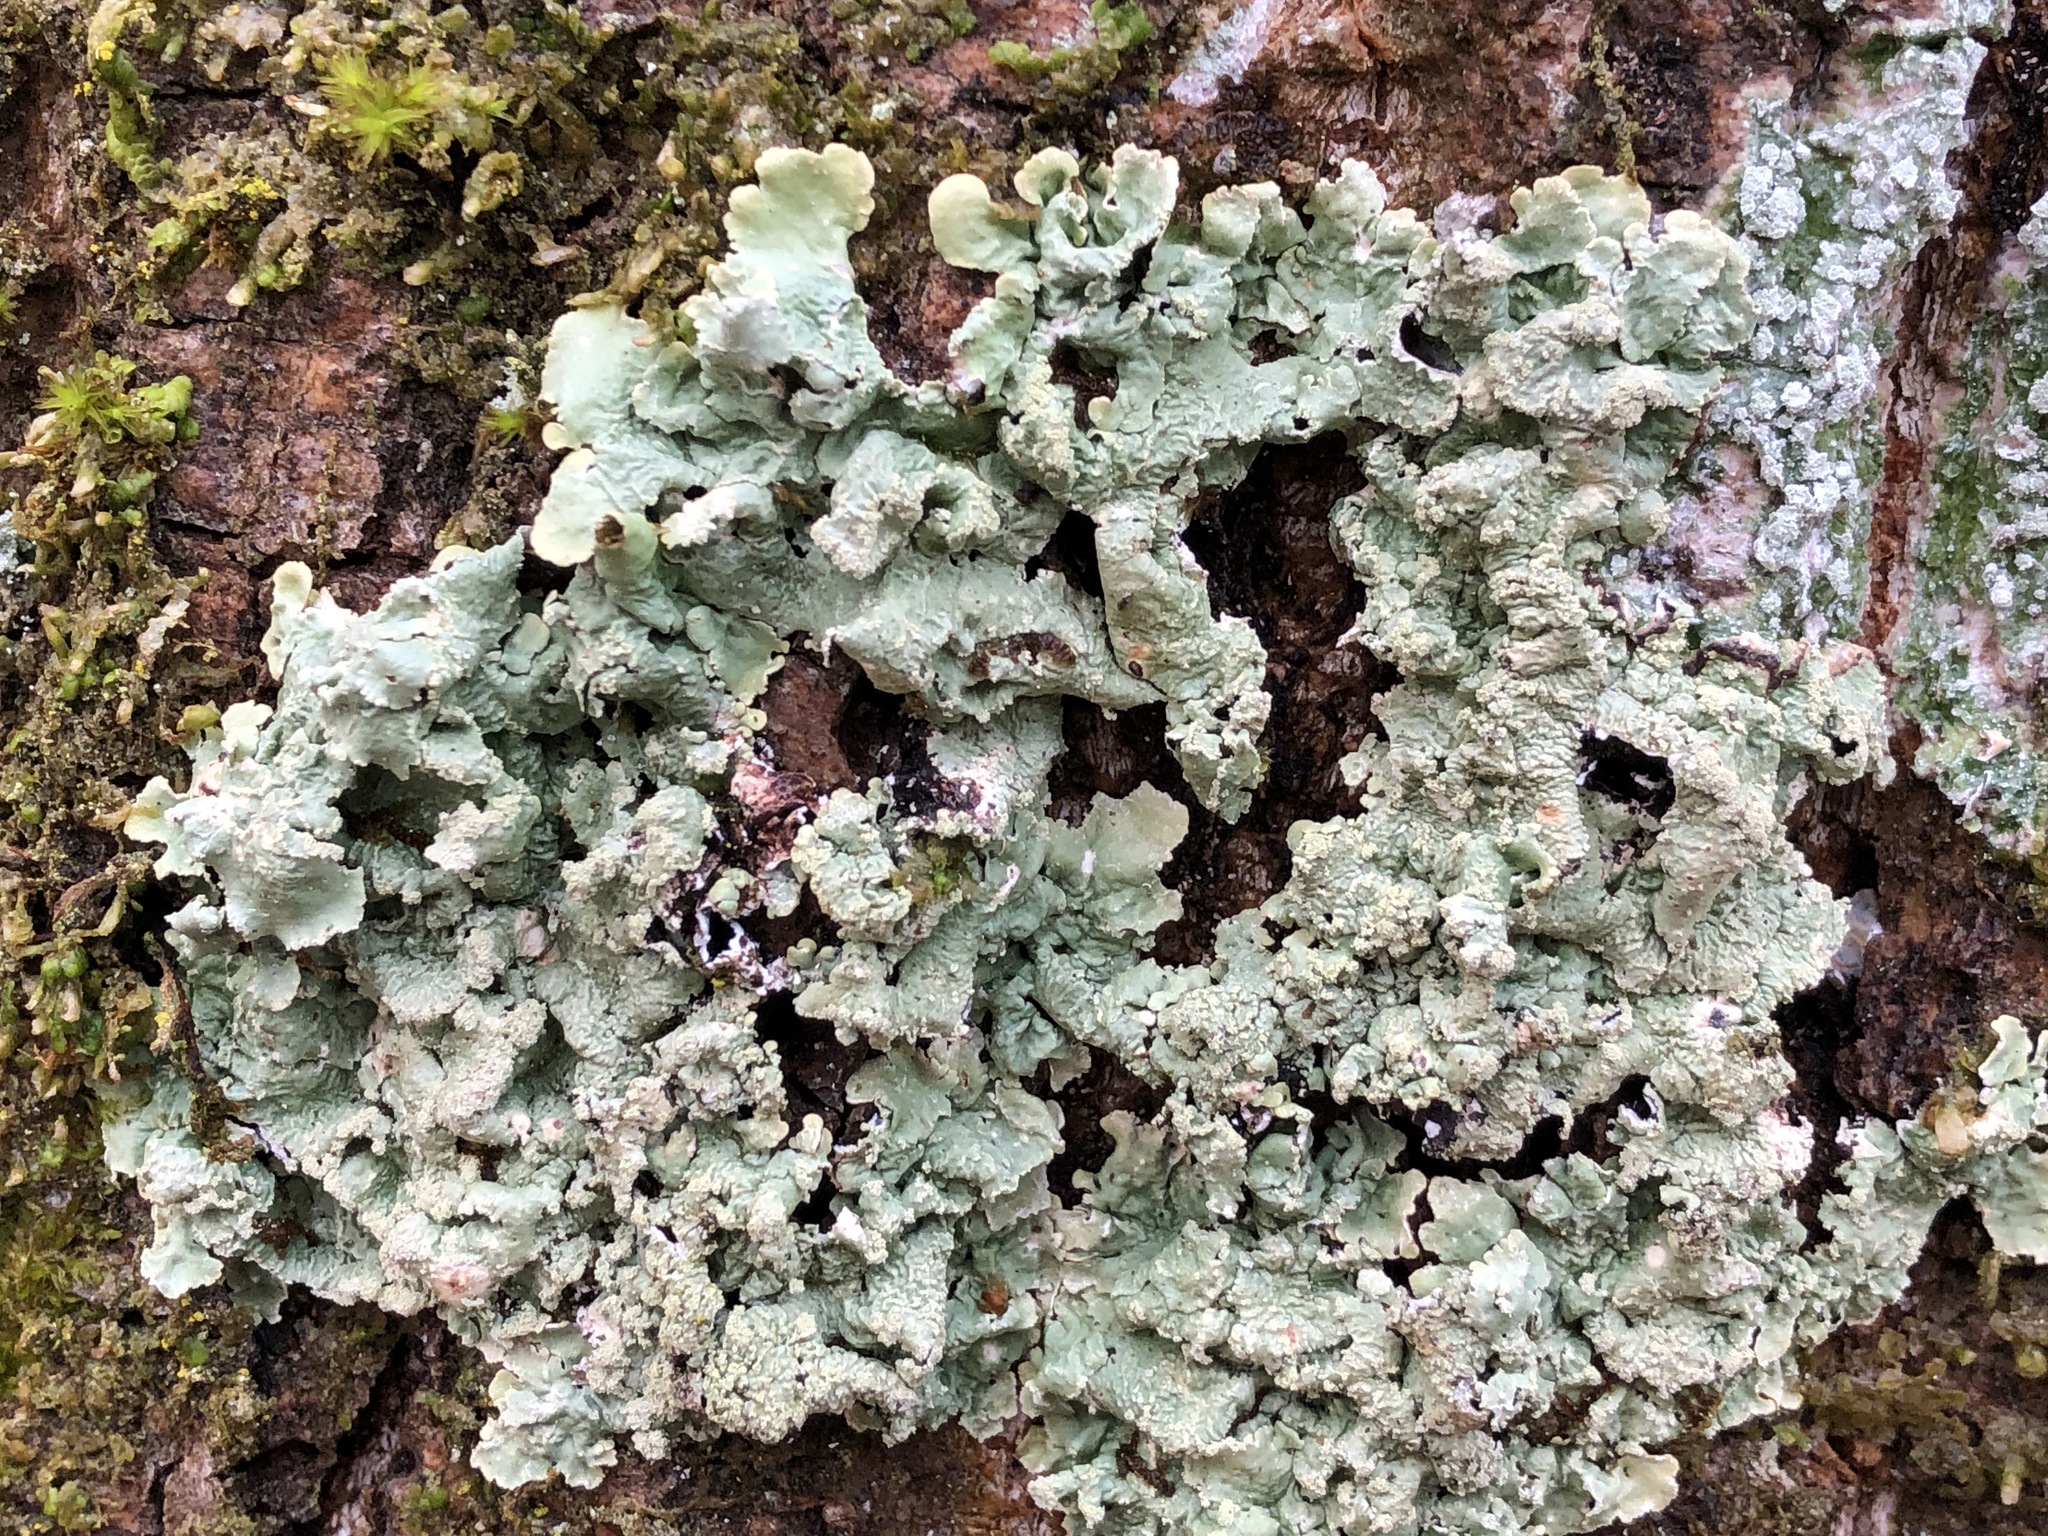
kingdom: Fungi
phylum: Ascomycota
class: Lecanoromycetes
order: Lecanorales
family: Parmeliaceae
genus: Flavoparmelia
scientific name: Flavoparmelia caperata
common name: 40-mile per hour lichen
